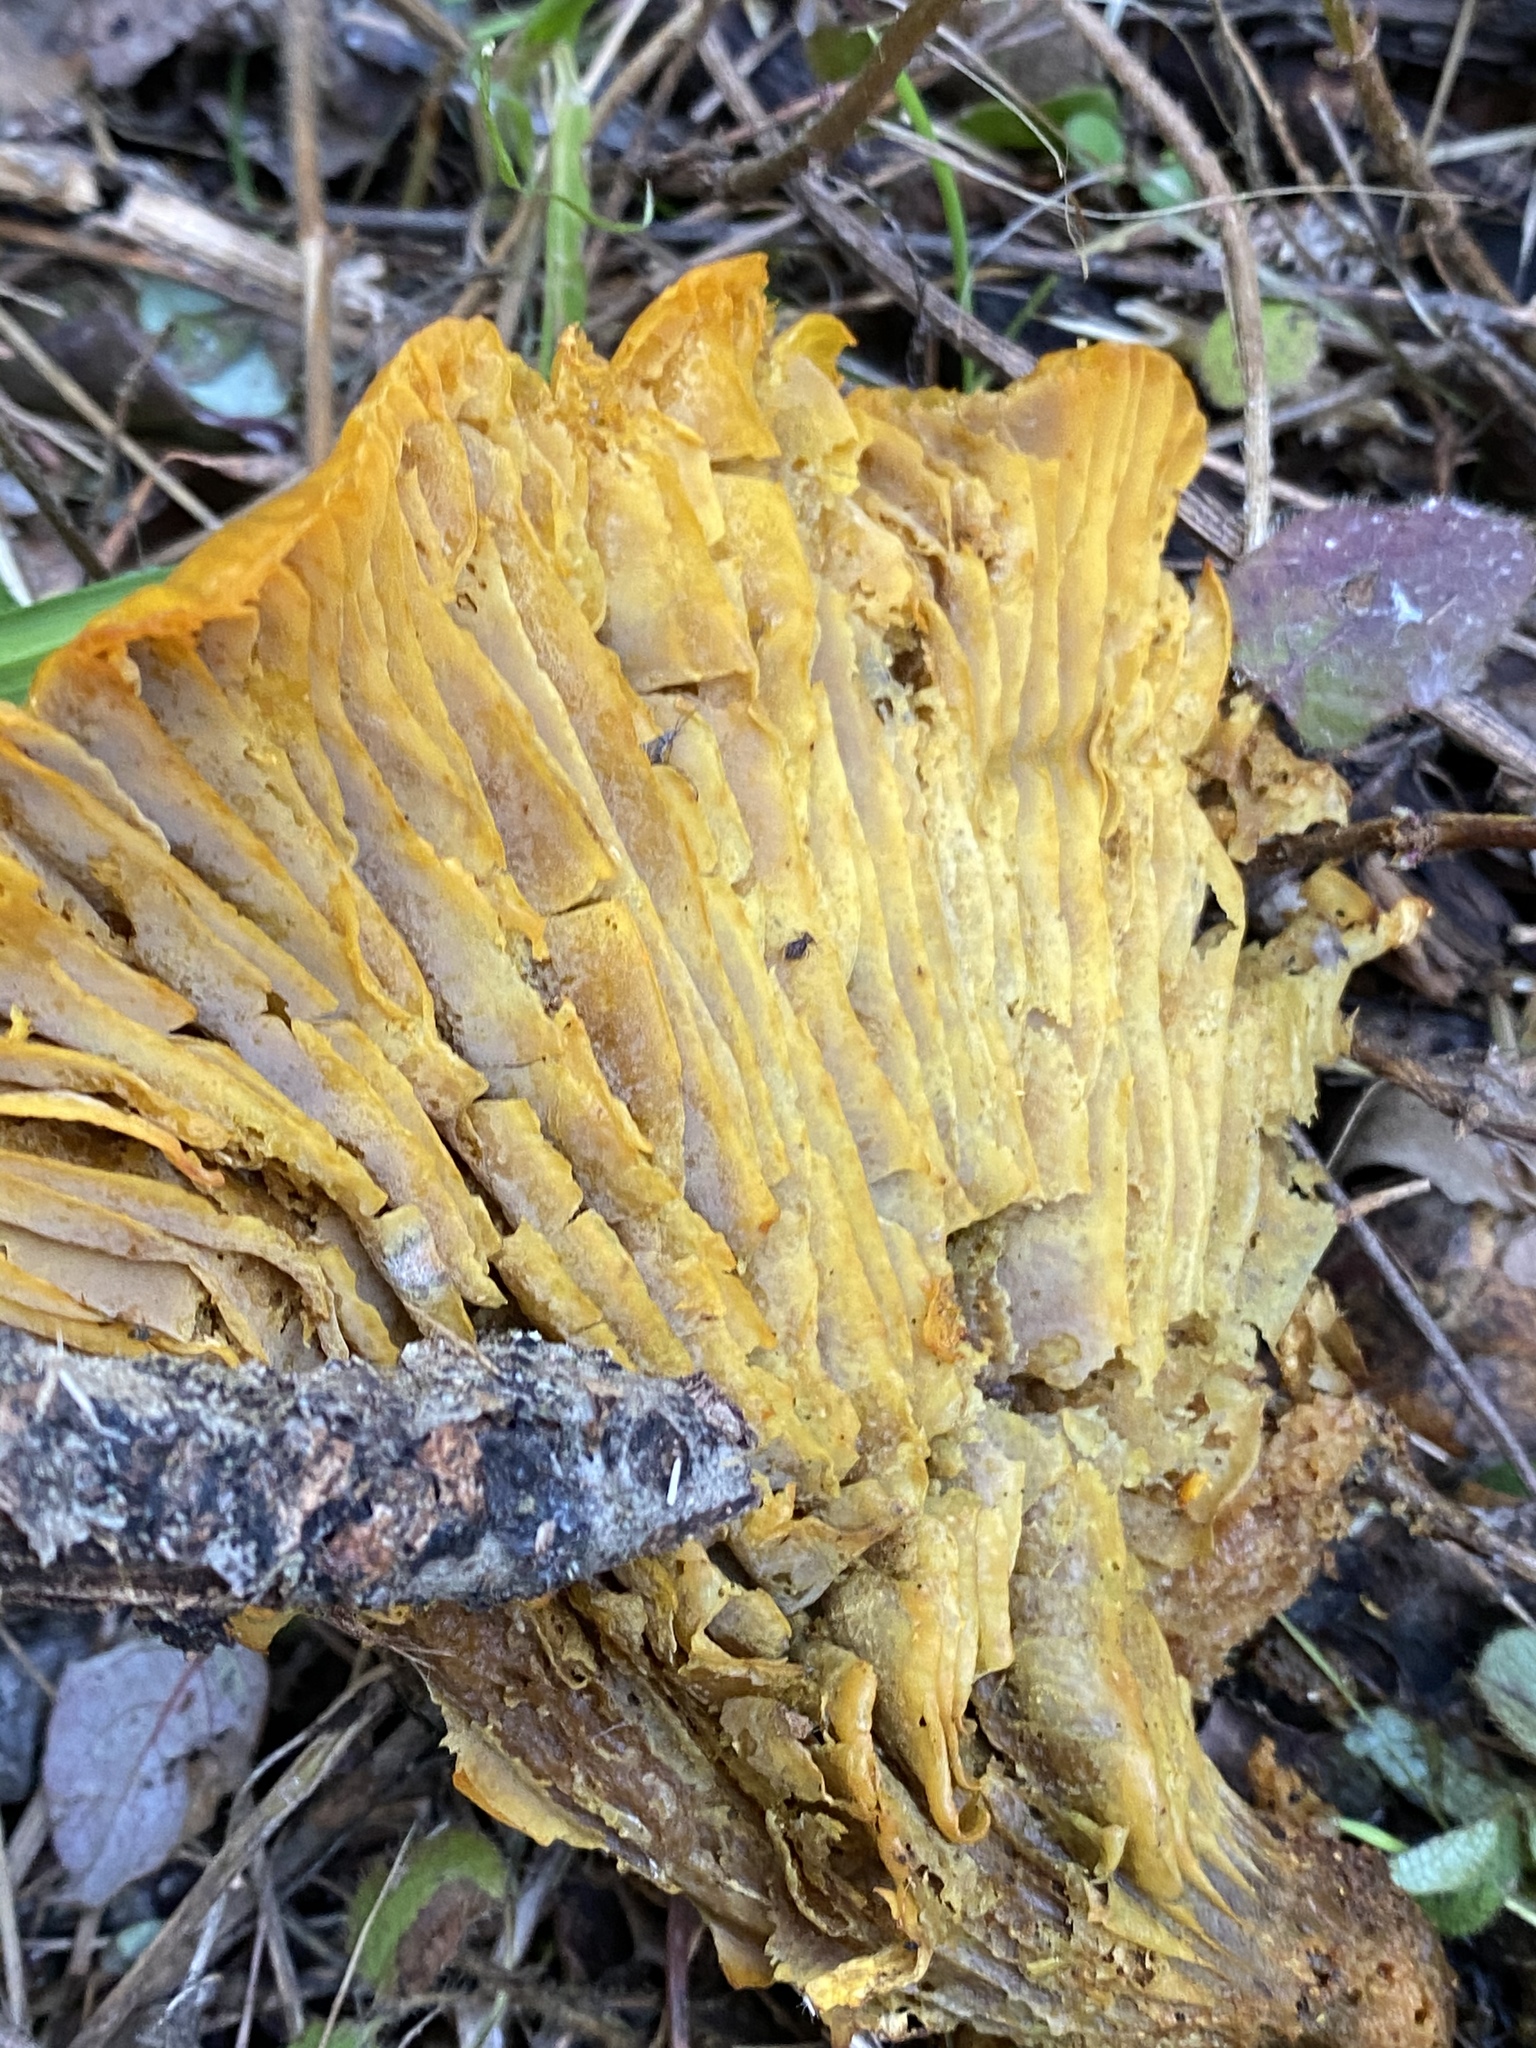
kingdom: Fungi
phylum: Basidiomycota
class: Agaricomycetes
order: Agaricales
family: Omphalotaceae
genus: Omphalotus
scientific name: Omphalotus olivascens
